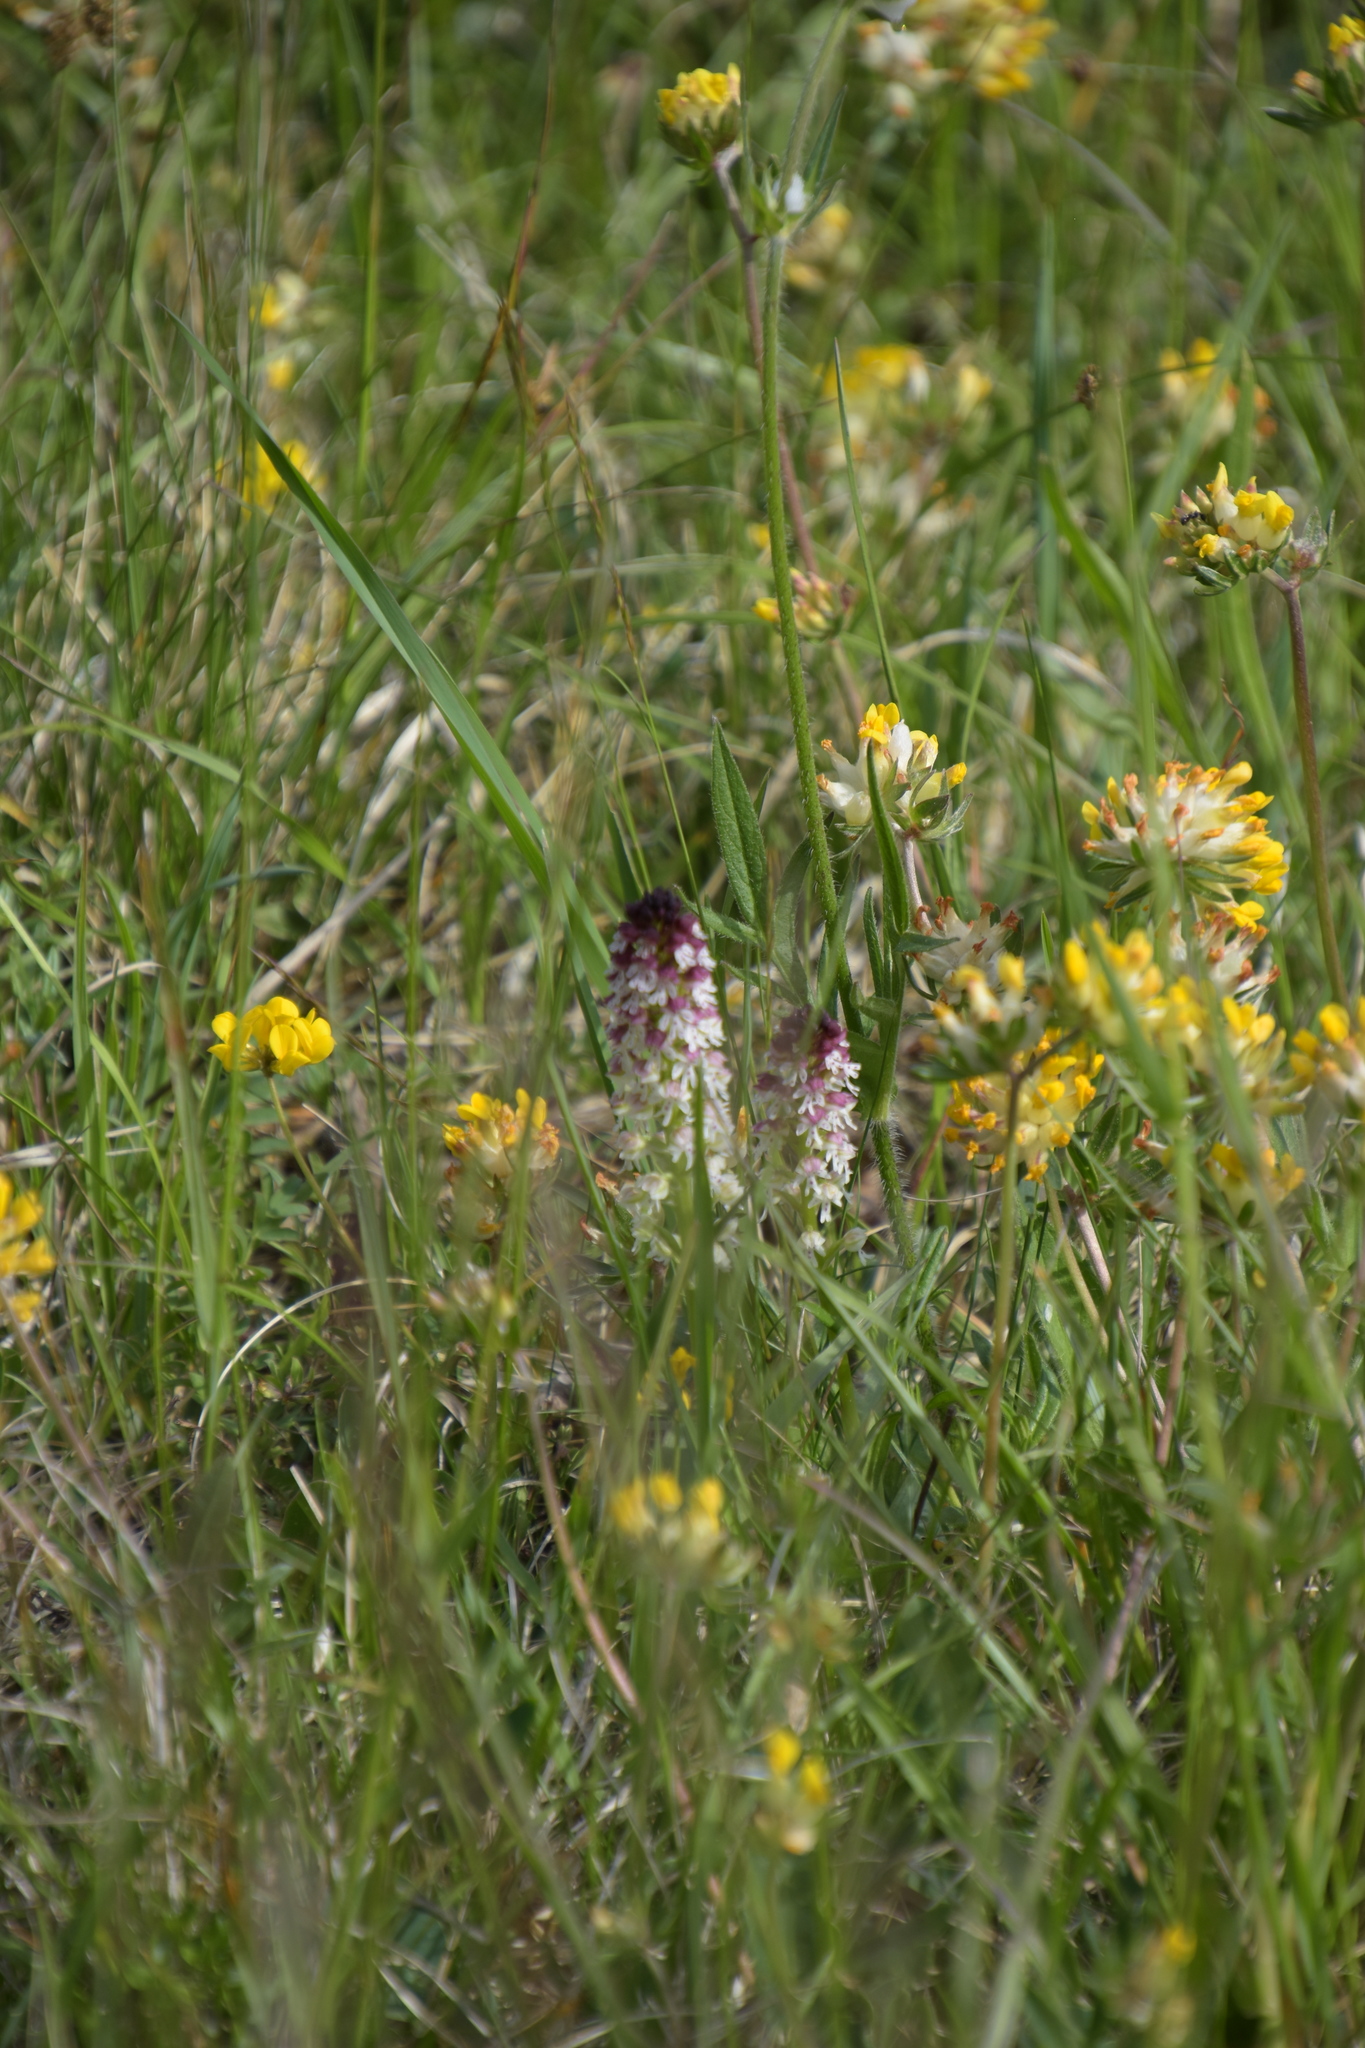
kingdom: Plantae
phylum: Tracheophyta
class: Liliopsida
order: Asparagales
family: Orchidaceae
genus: Neotinea
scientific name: Neotinea ustulata
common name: Burnt orchid
